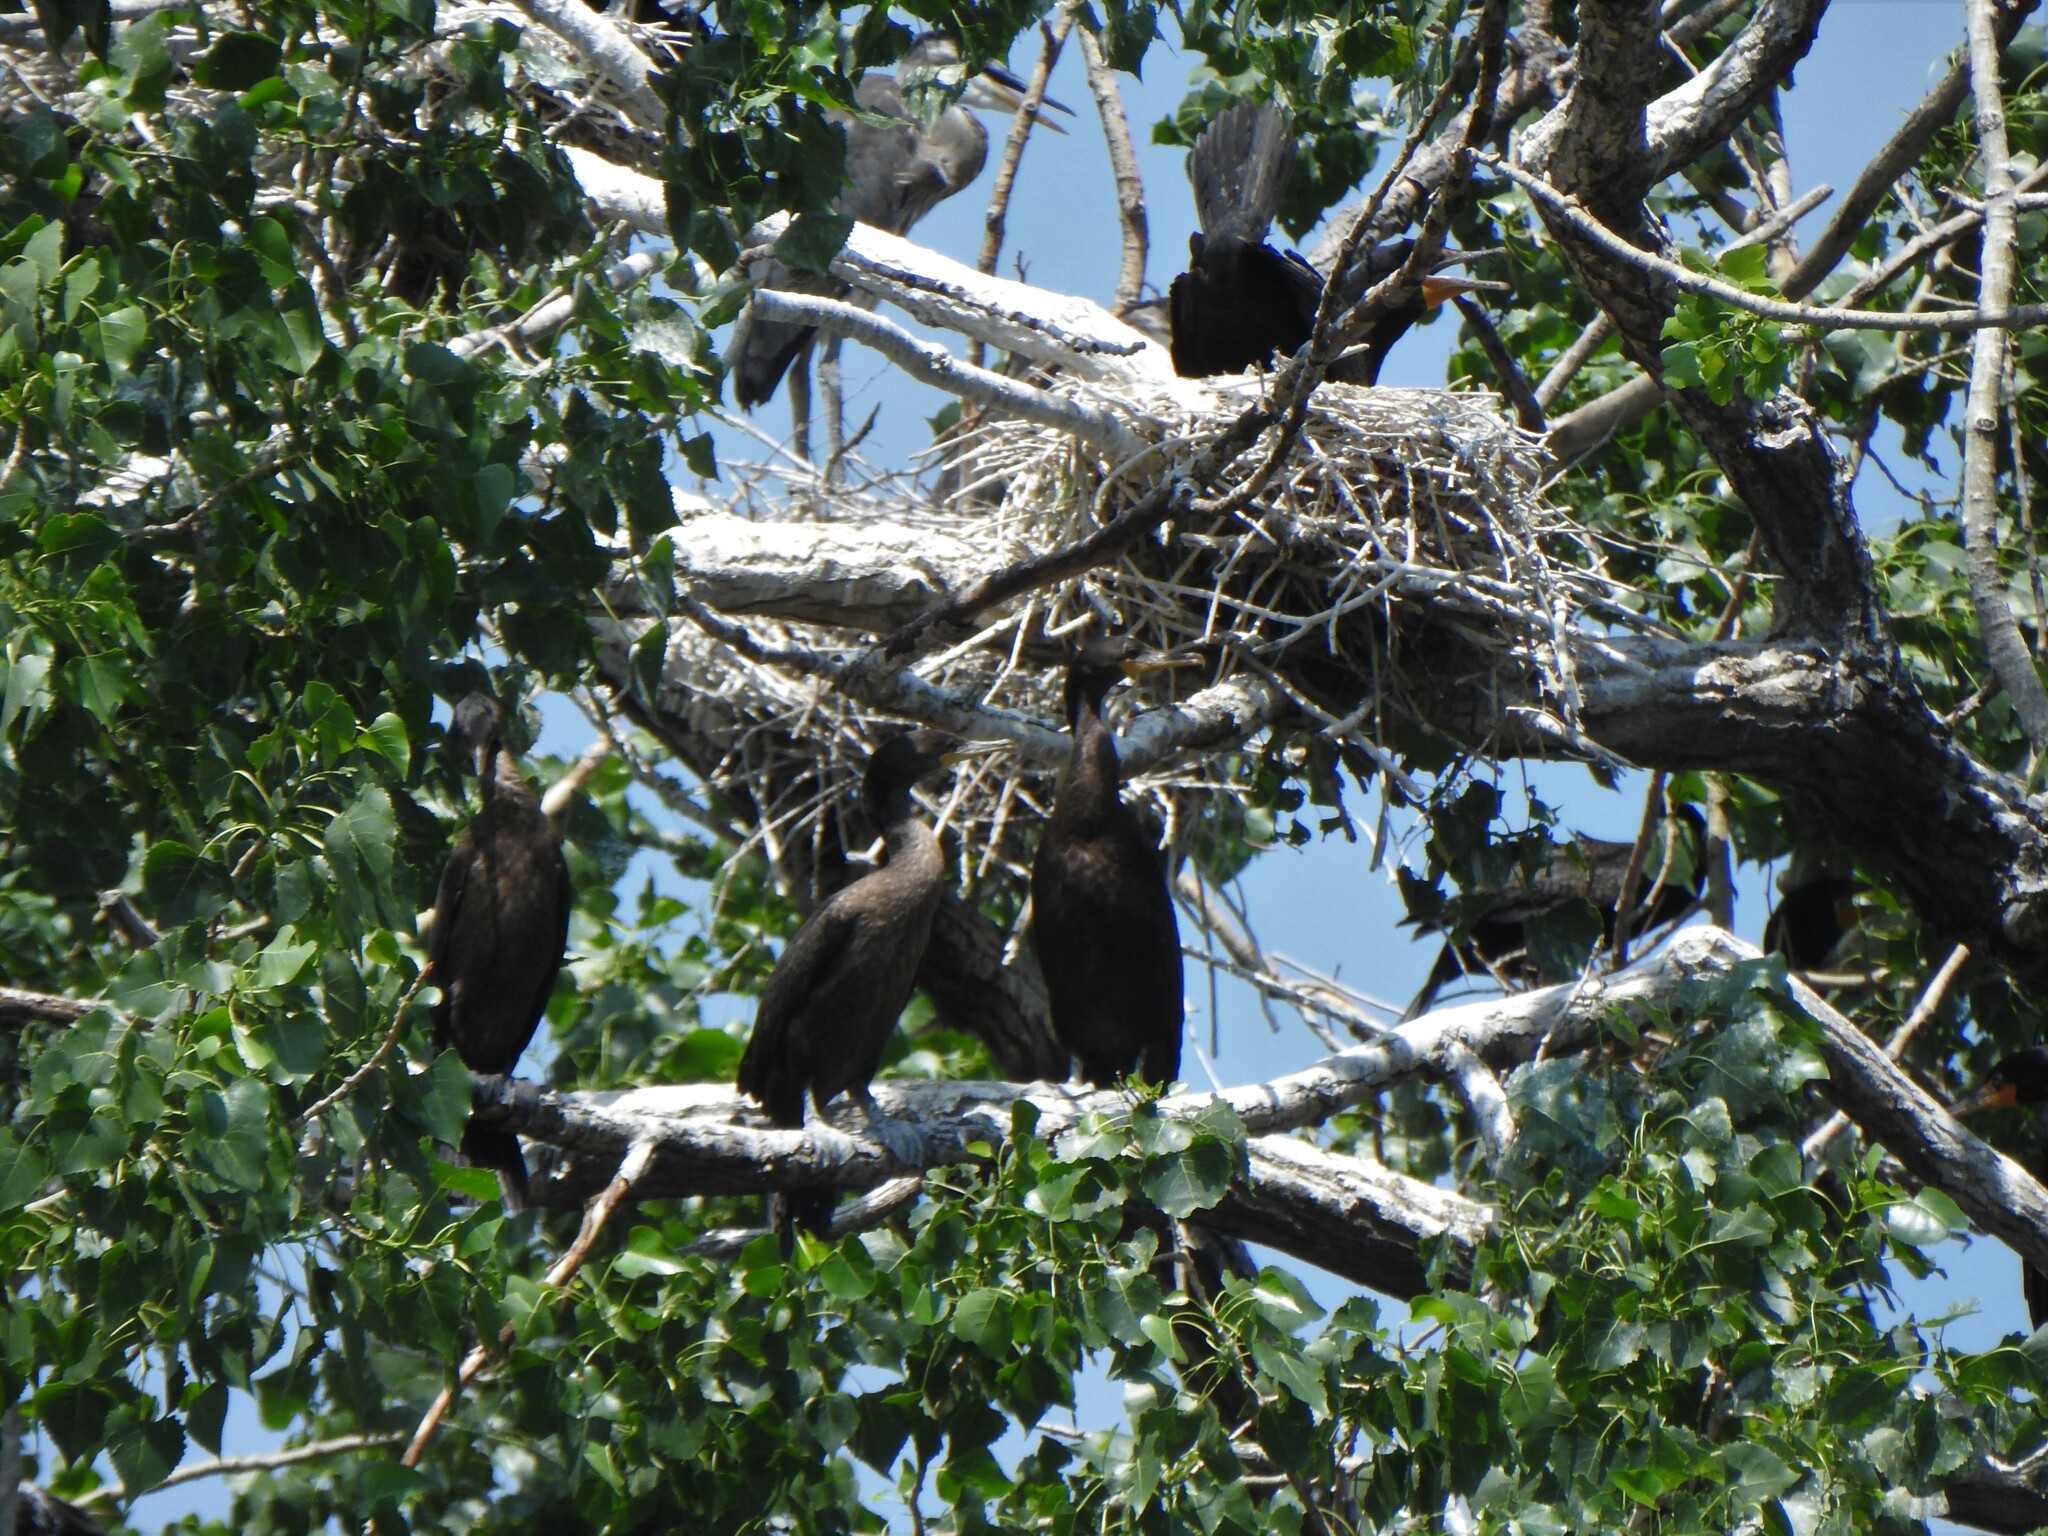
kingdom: Animalia
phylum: Chordata
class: Aves
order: Suliformes
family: Phalacrocoracidae
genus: Phalacrocorax
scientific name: Phalacrocorax auritus
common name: Double-crested cormorant
